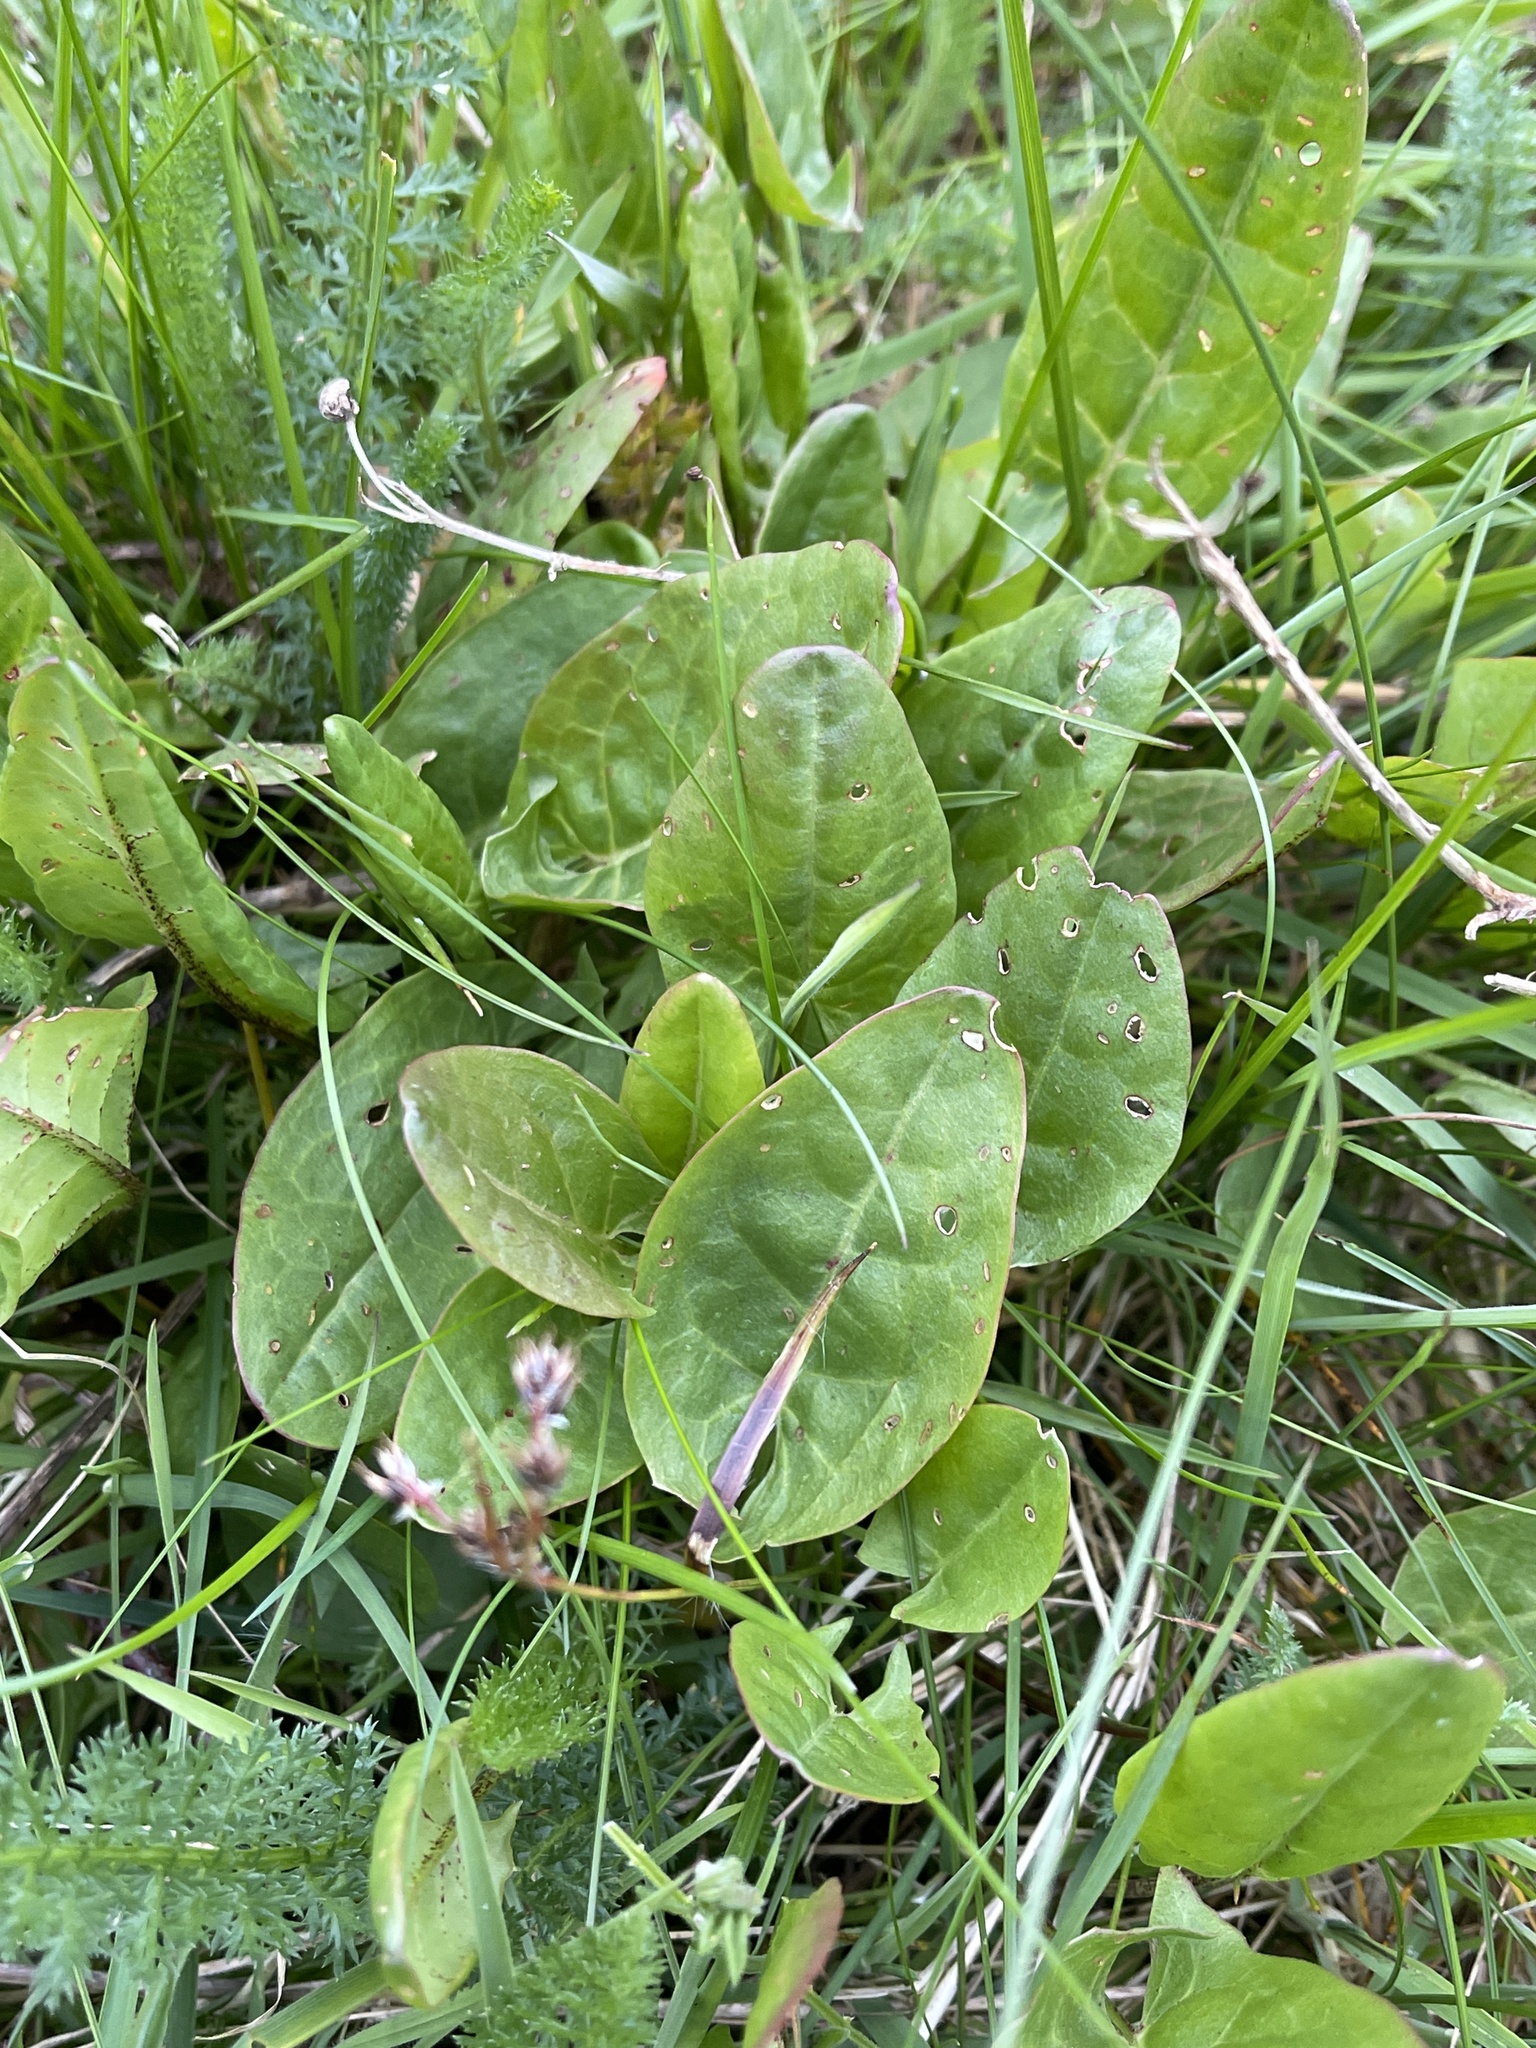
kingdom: Plantae
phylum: Tracheophyta
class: Magnoliopsida
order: Caryophyllales
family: Polygonaceae
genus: Rumex
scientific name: Rumex acetosa
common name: Garden sorrel
